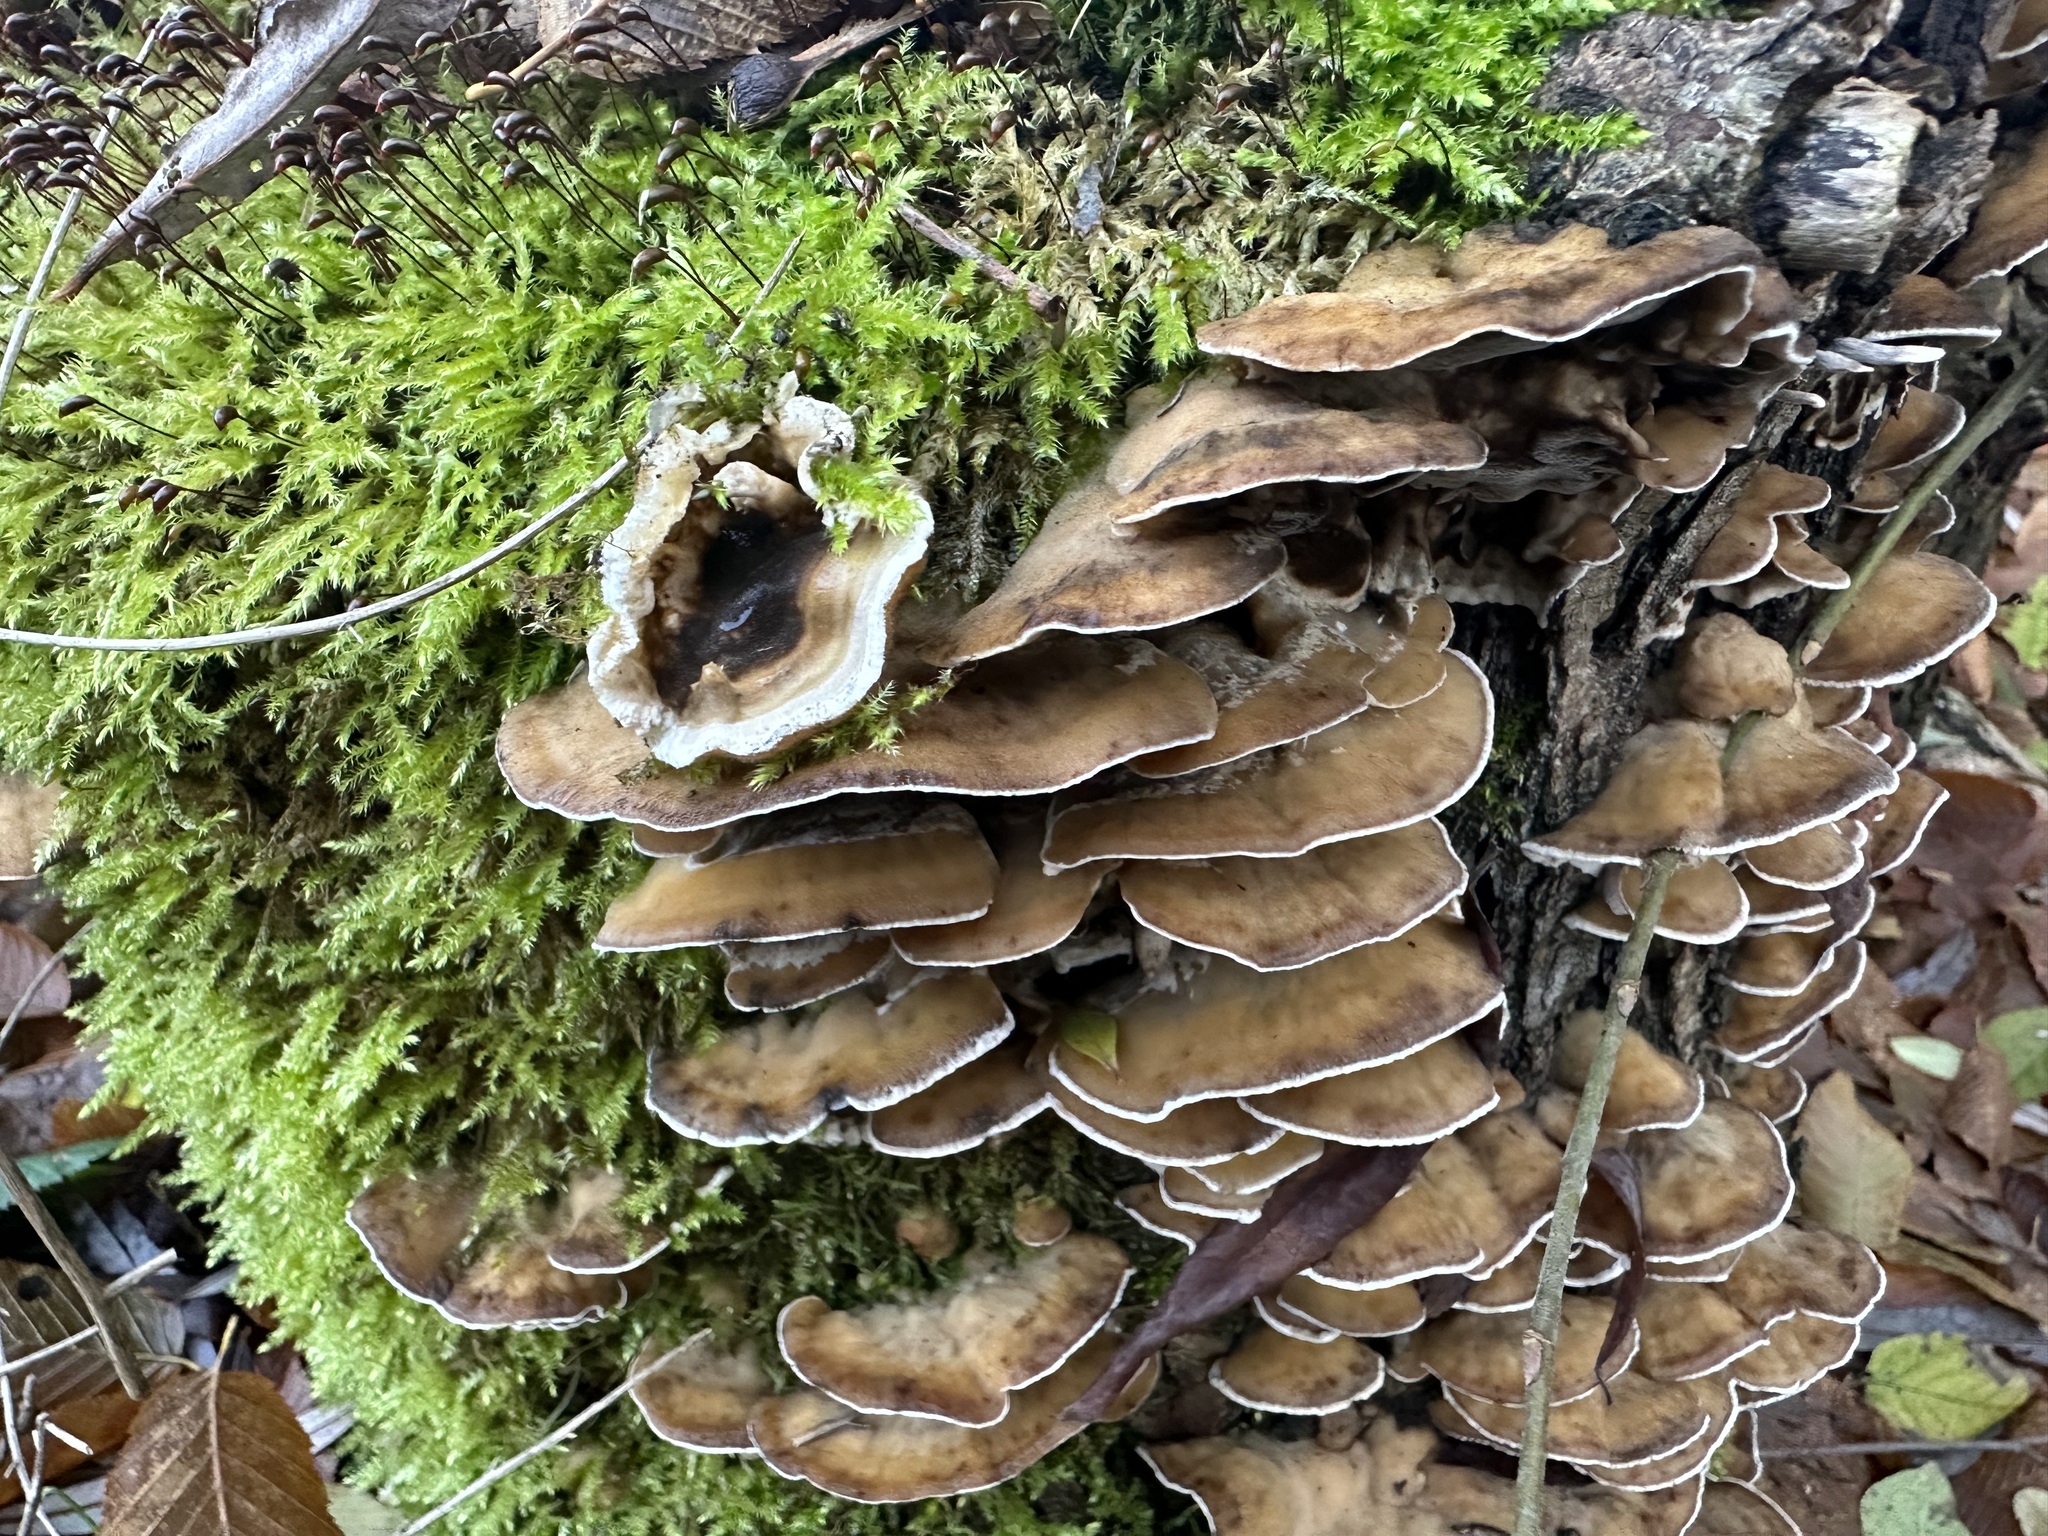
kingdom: Fungi
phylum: Basidiomycota
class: Agaricomycetes
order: Polyporales
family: Phanerochaetaceae
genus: Bjerkandera
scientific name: Bjerkandera adusta
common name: Smoky bracket
